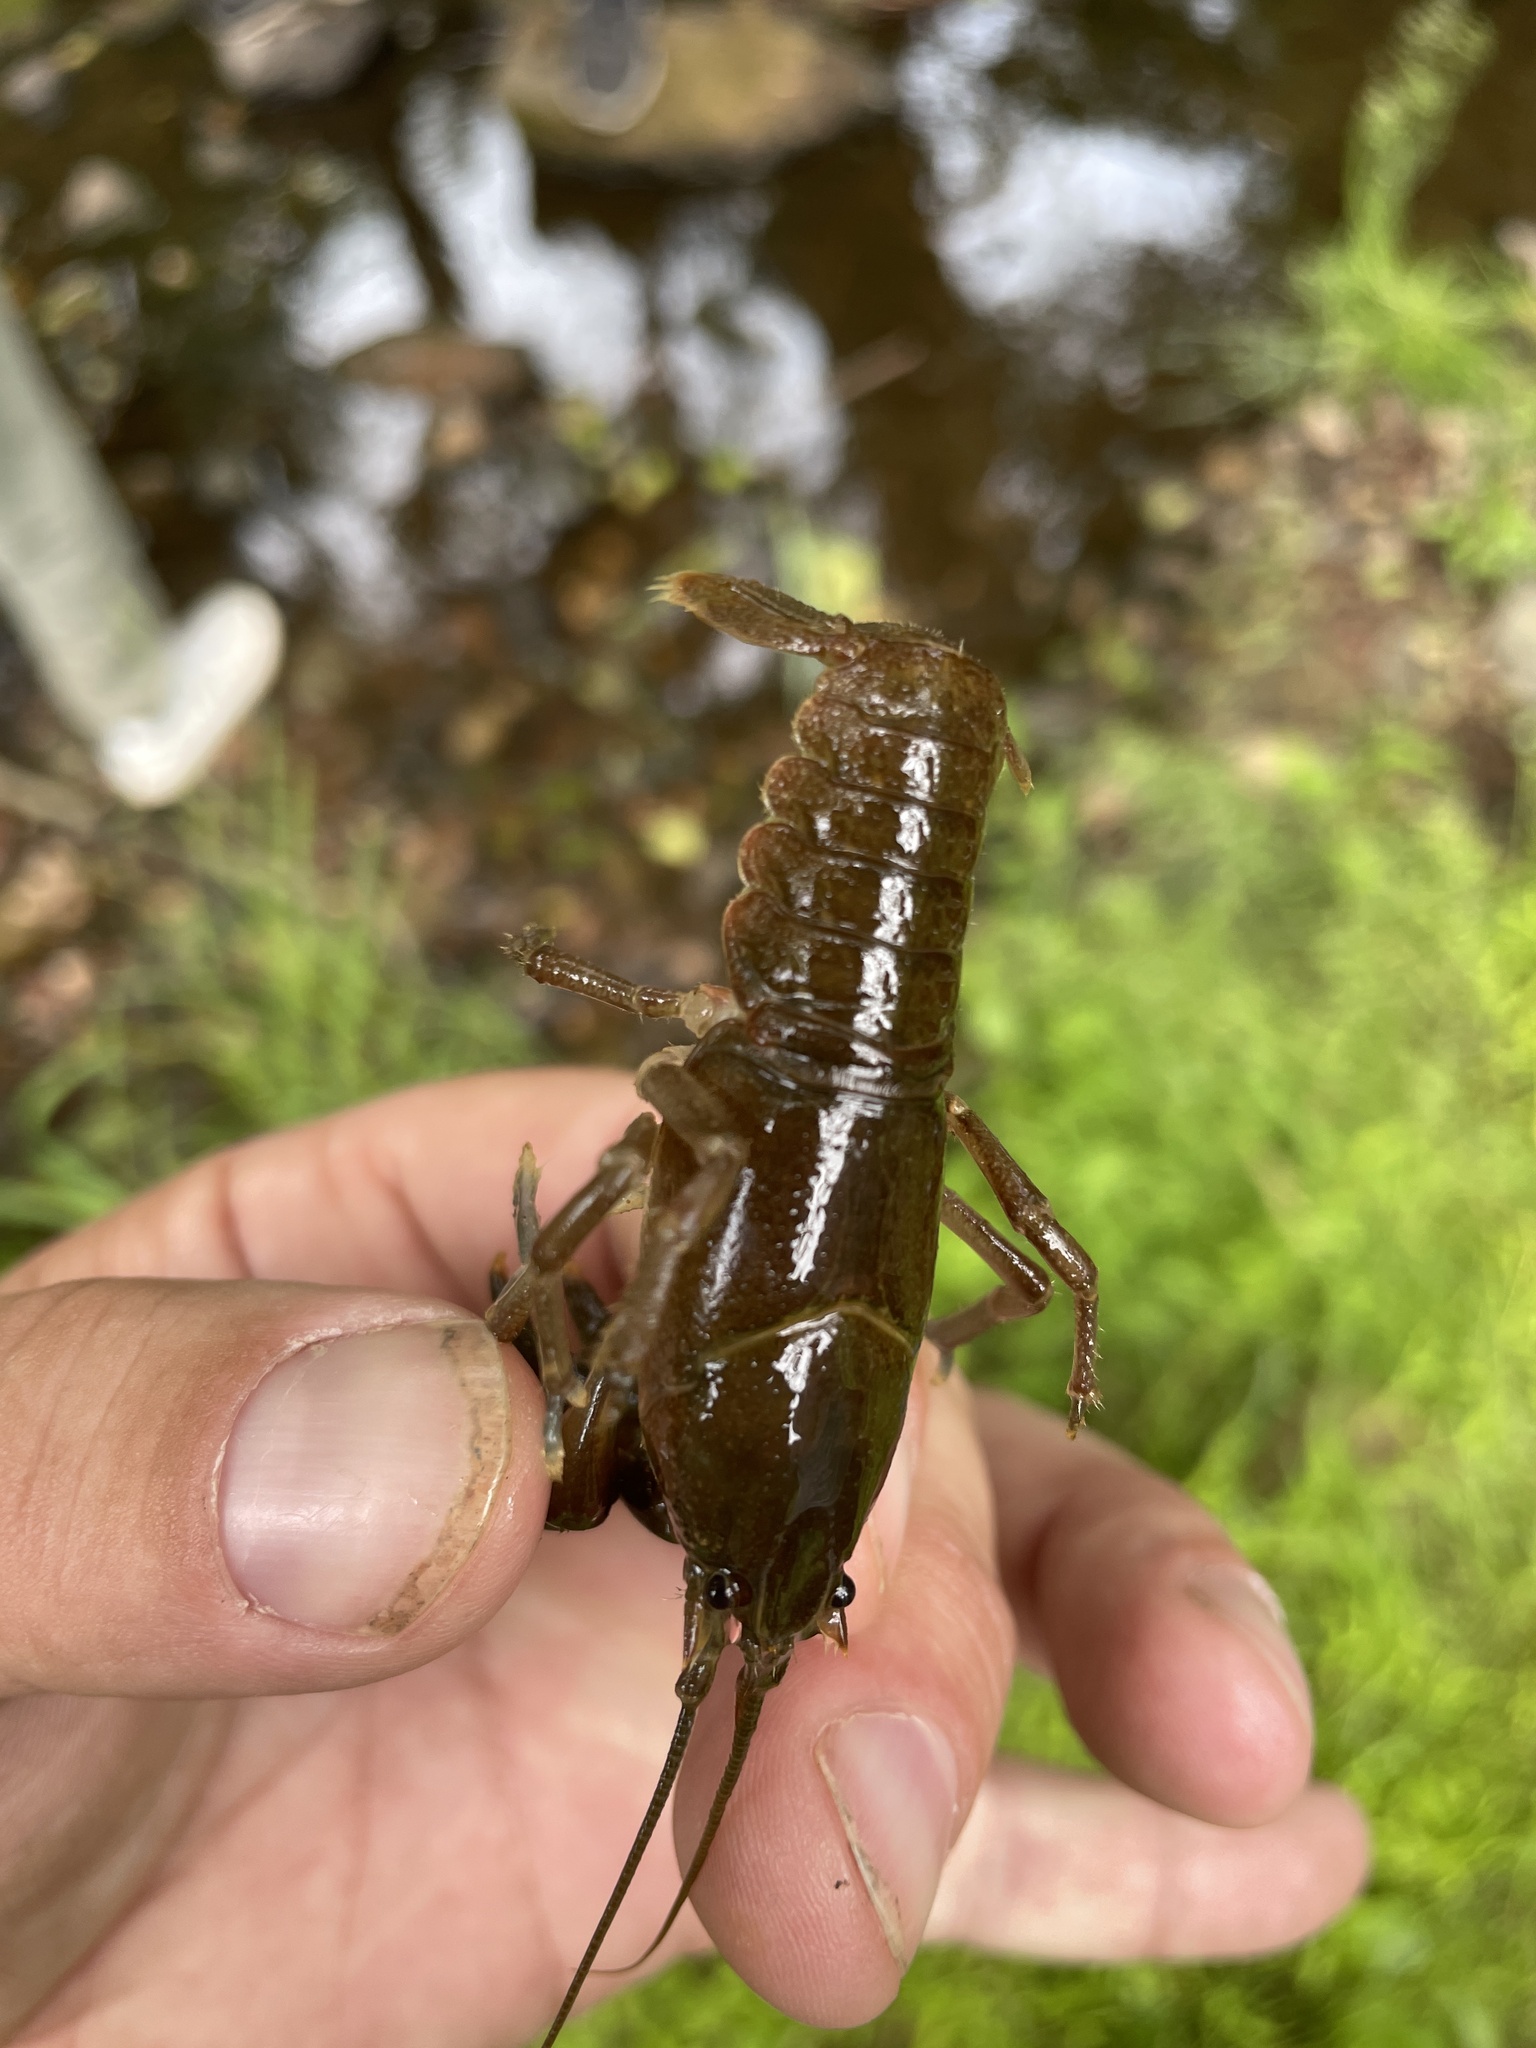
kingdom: Animalia
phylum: Arthropoda
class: Malacostraca
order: Decapoda
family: Cambaridae
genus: Cambarus
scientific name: Cambarus bartonii
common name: Appalachian brook crayfish
